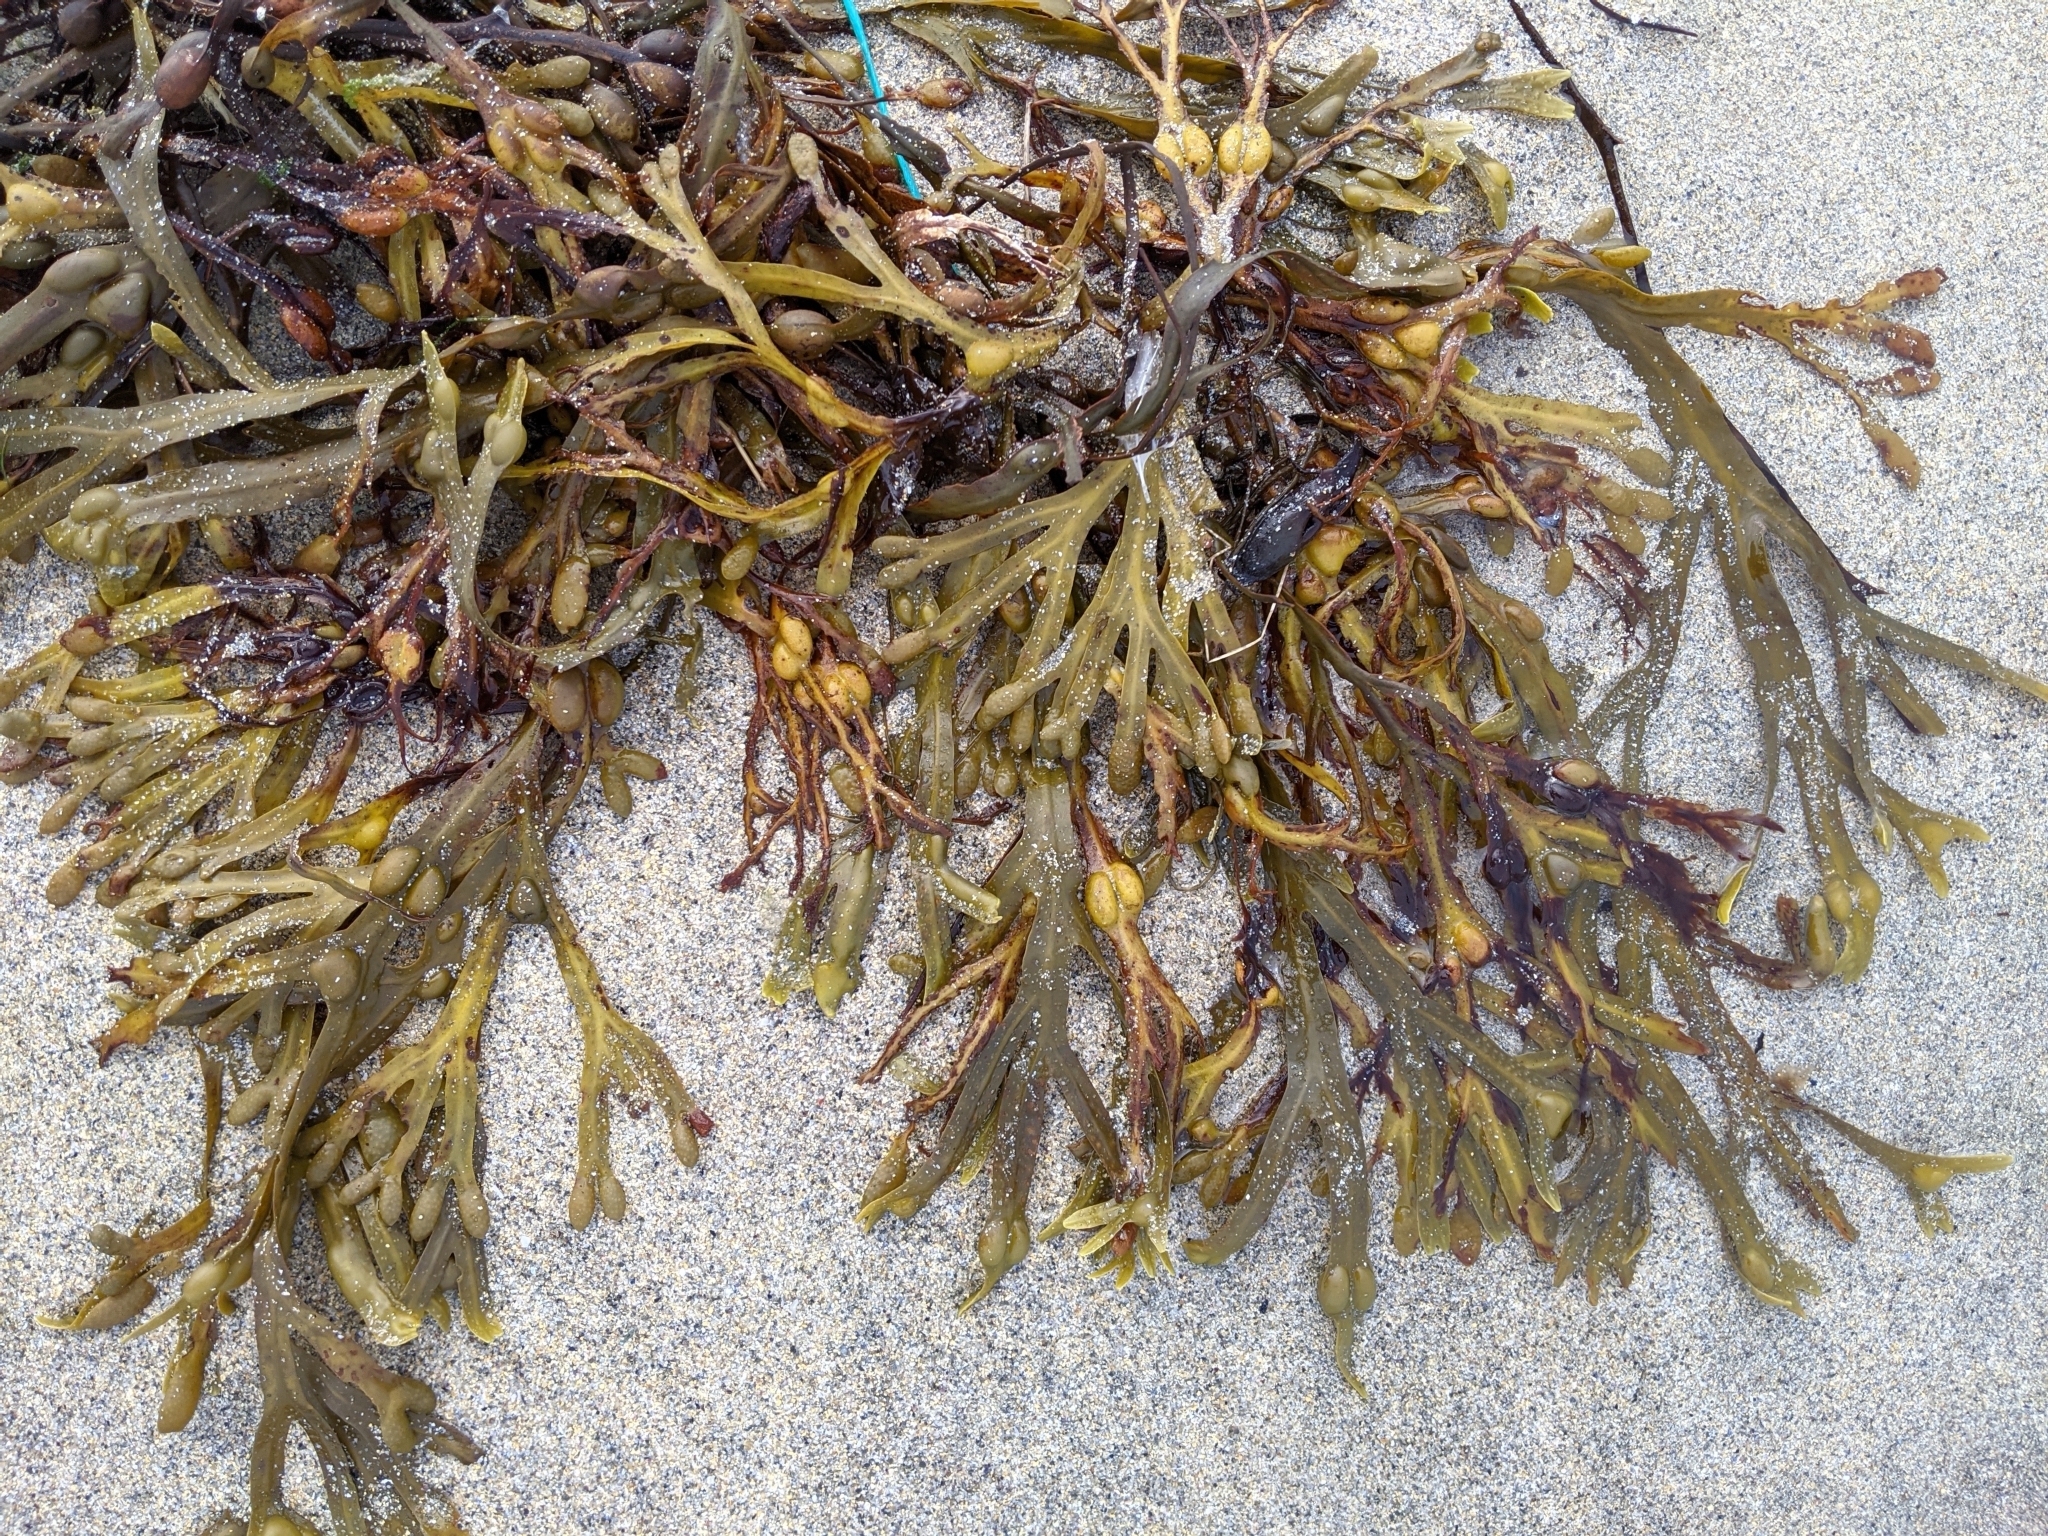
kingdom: Chromista
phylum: Ochrophyta
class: Phaeophyceae
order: Fucales
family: Fucaceae
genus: Fucus
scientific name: Fucus vesiculosus
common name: Bladder wrack
